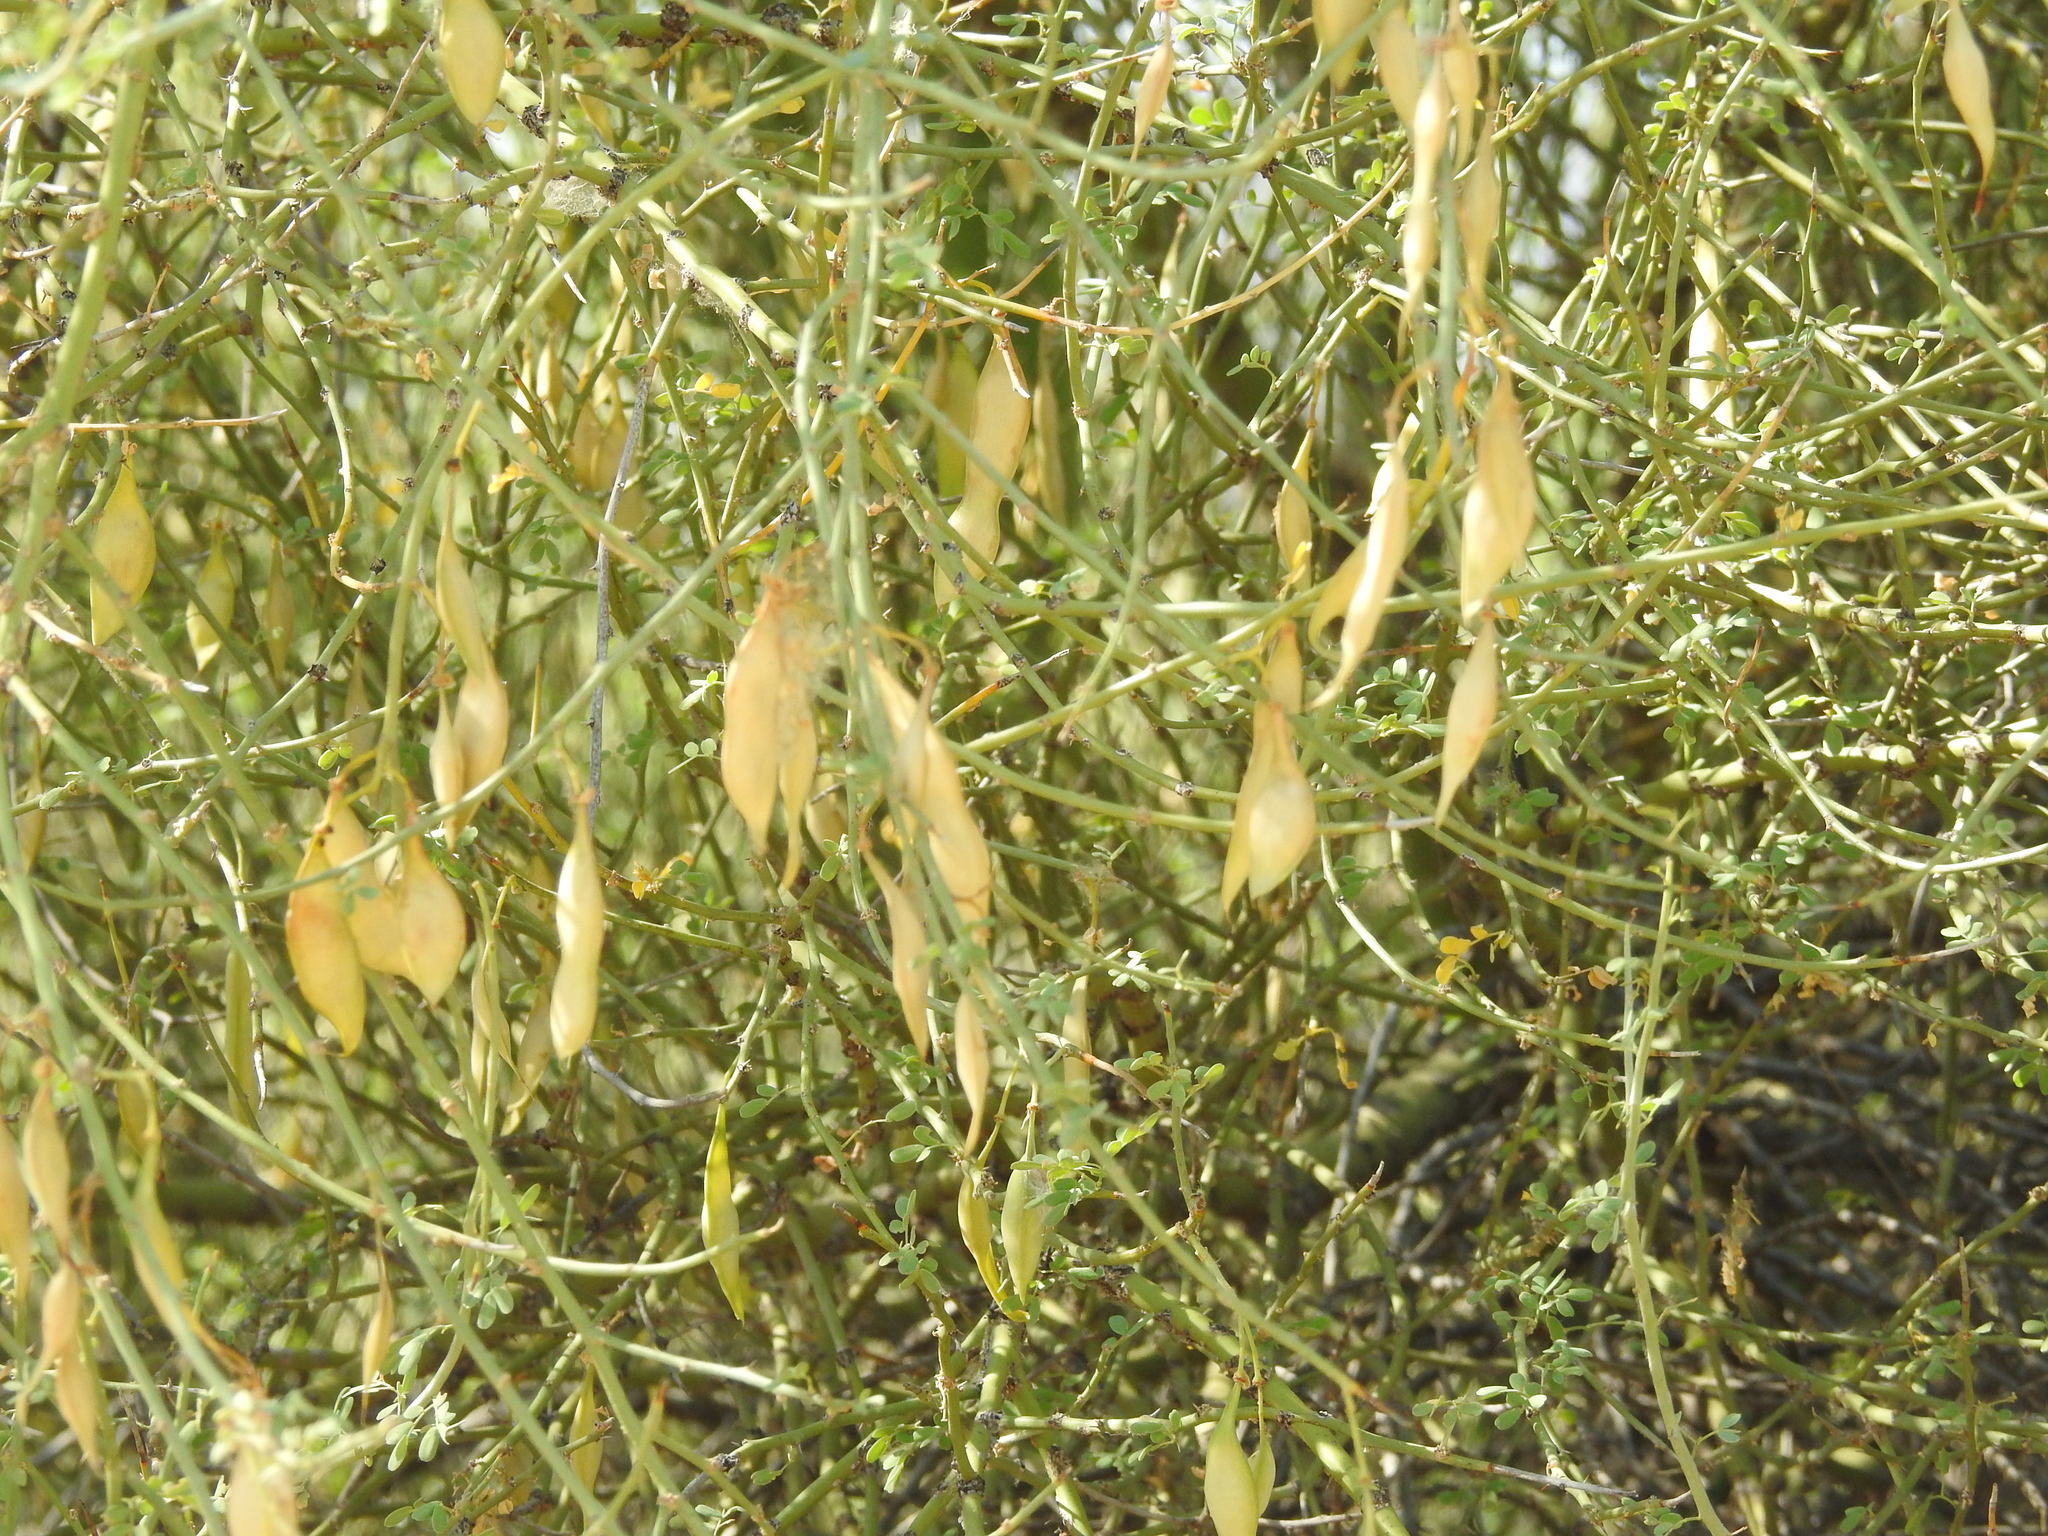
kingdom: Plantae
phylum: Tracheophyta
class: Magnoliopsida
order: Fabales
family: Fabaceae
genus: Parkinsonia
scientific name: Parkinsonia florida
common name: Blue paloverde
